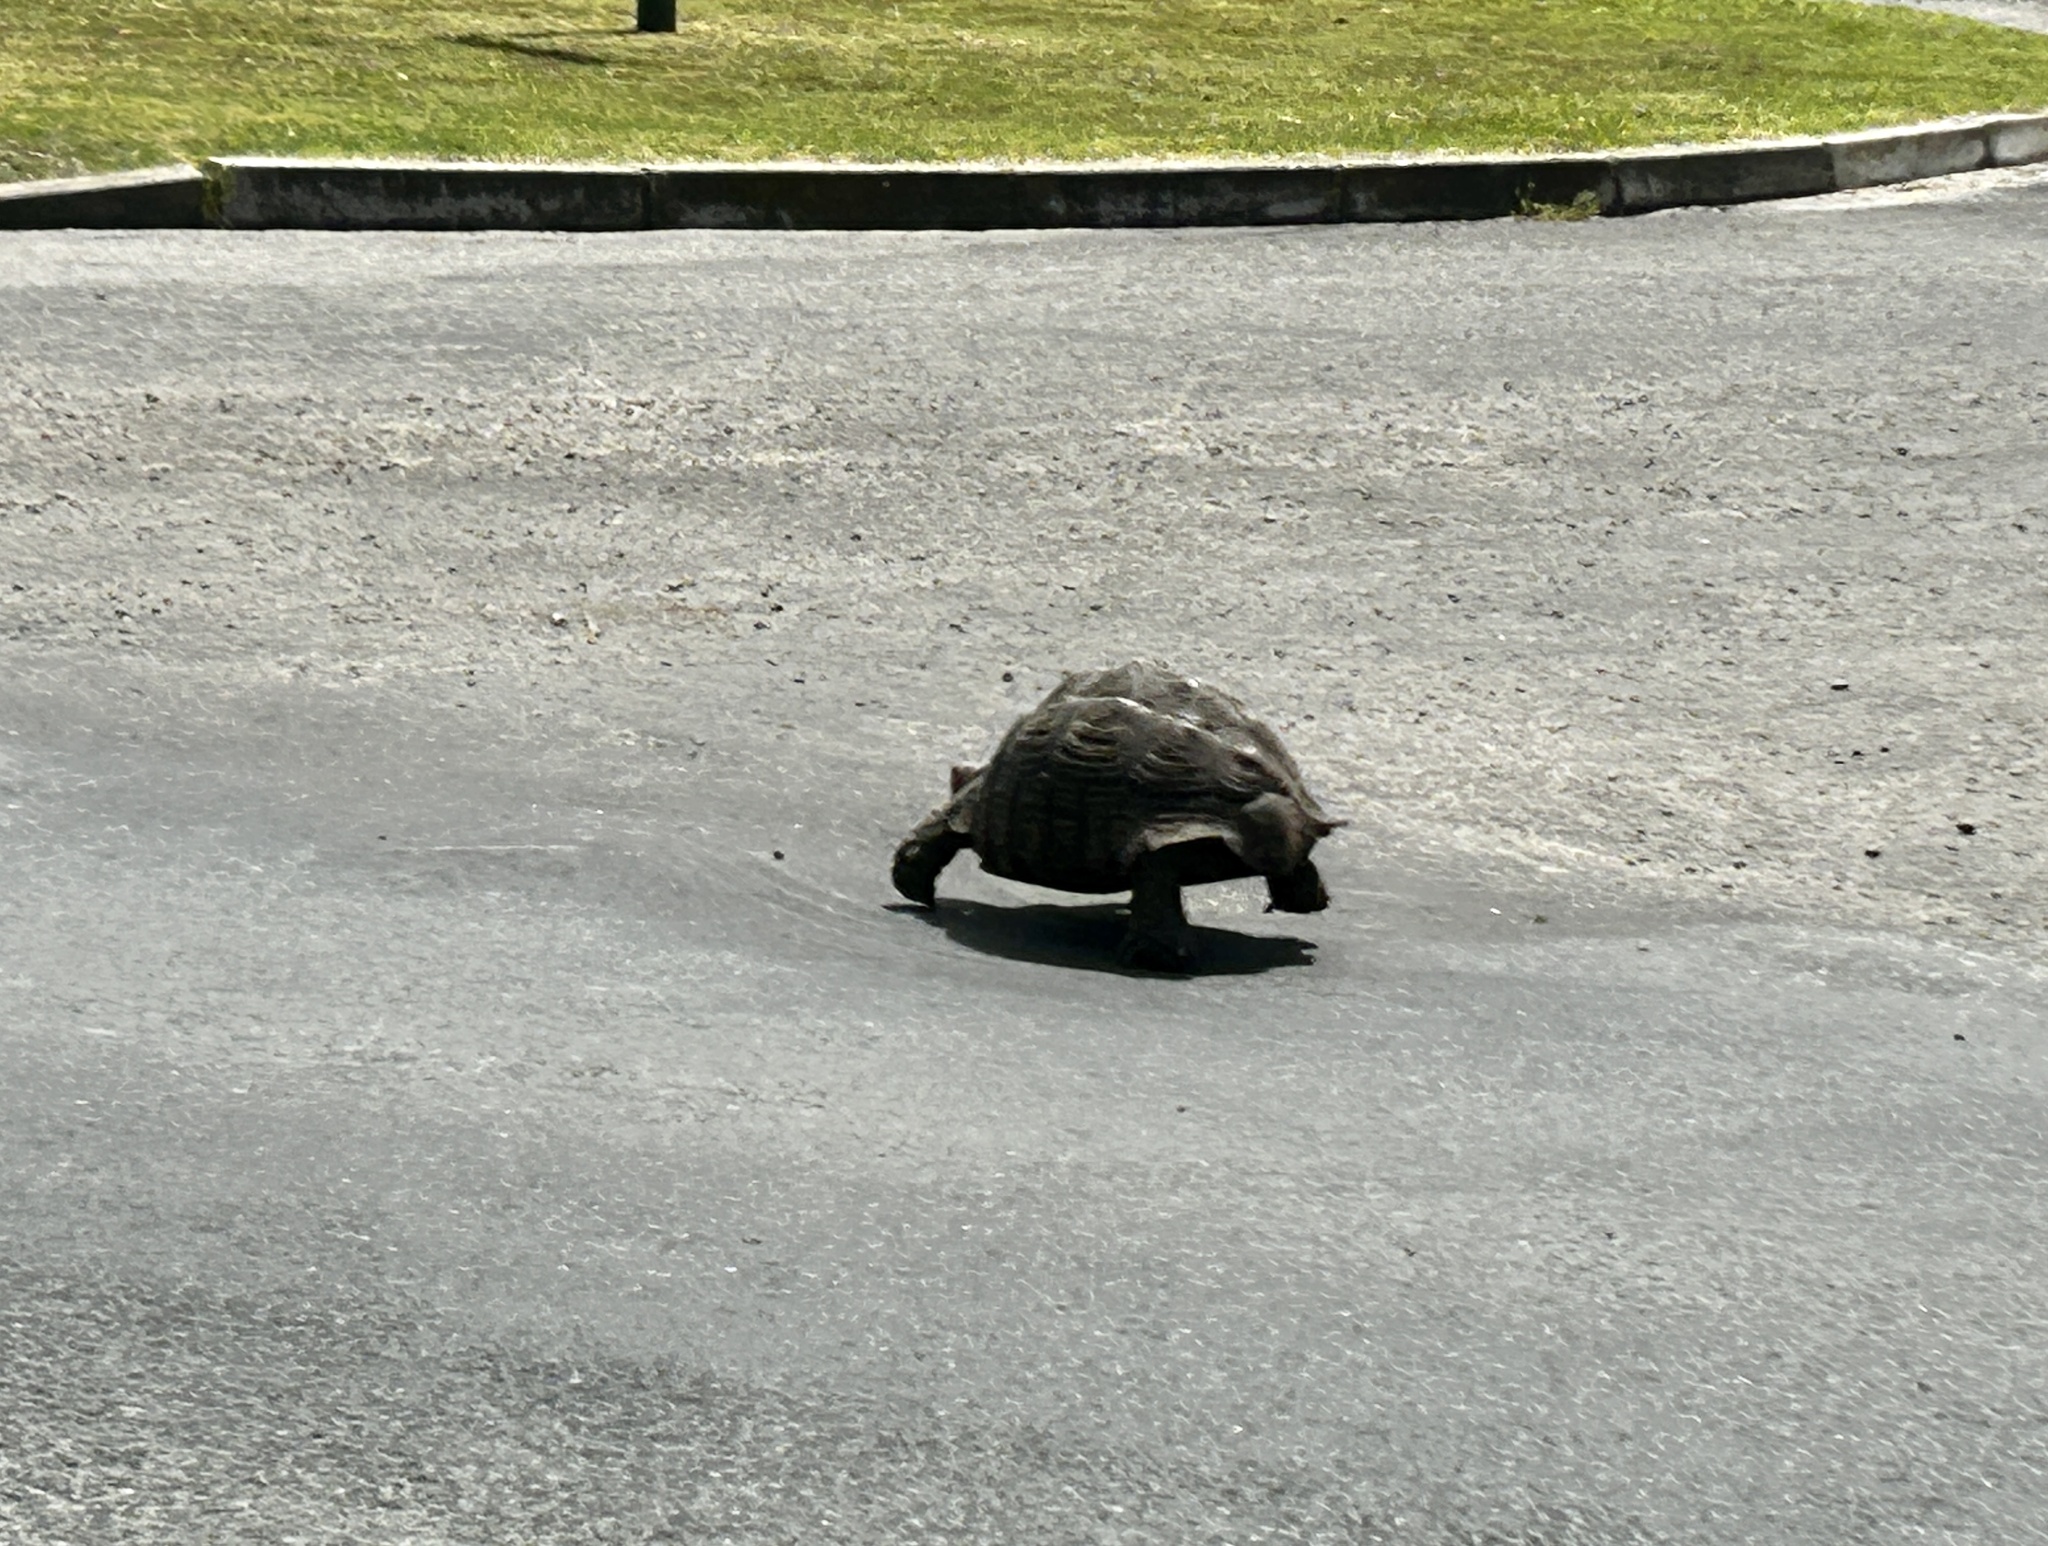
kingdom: Animalia
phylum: Chordata
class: Testudines
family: Testudinidae
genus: Stigmochelys
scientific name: Stigmochelys pardalis
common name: Leopard tortoise
